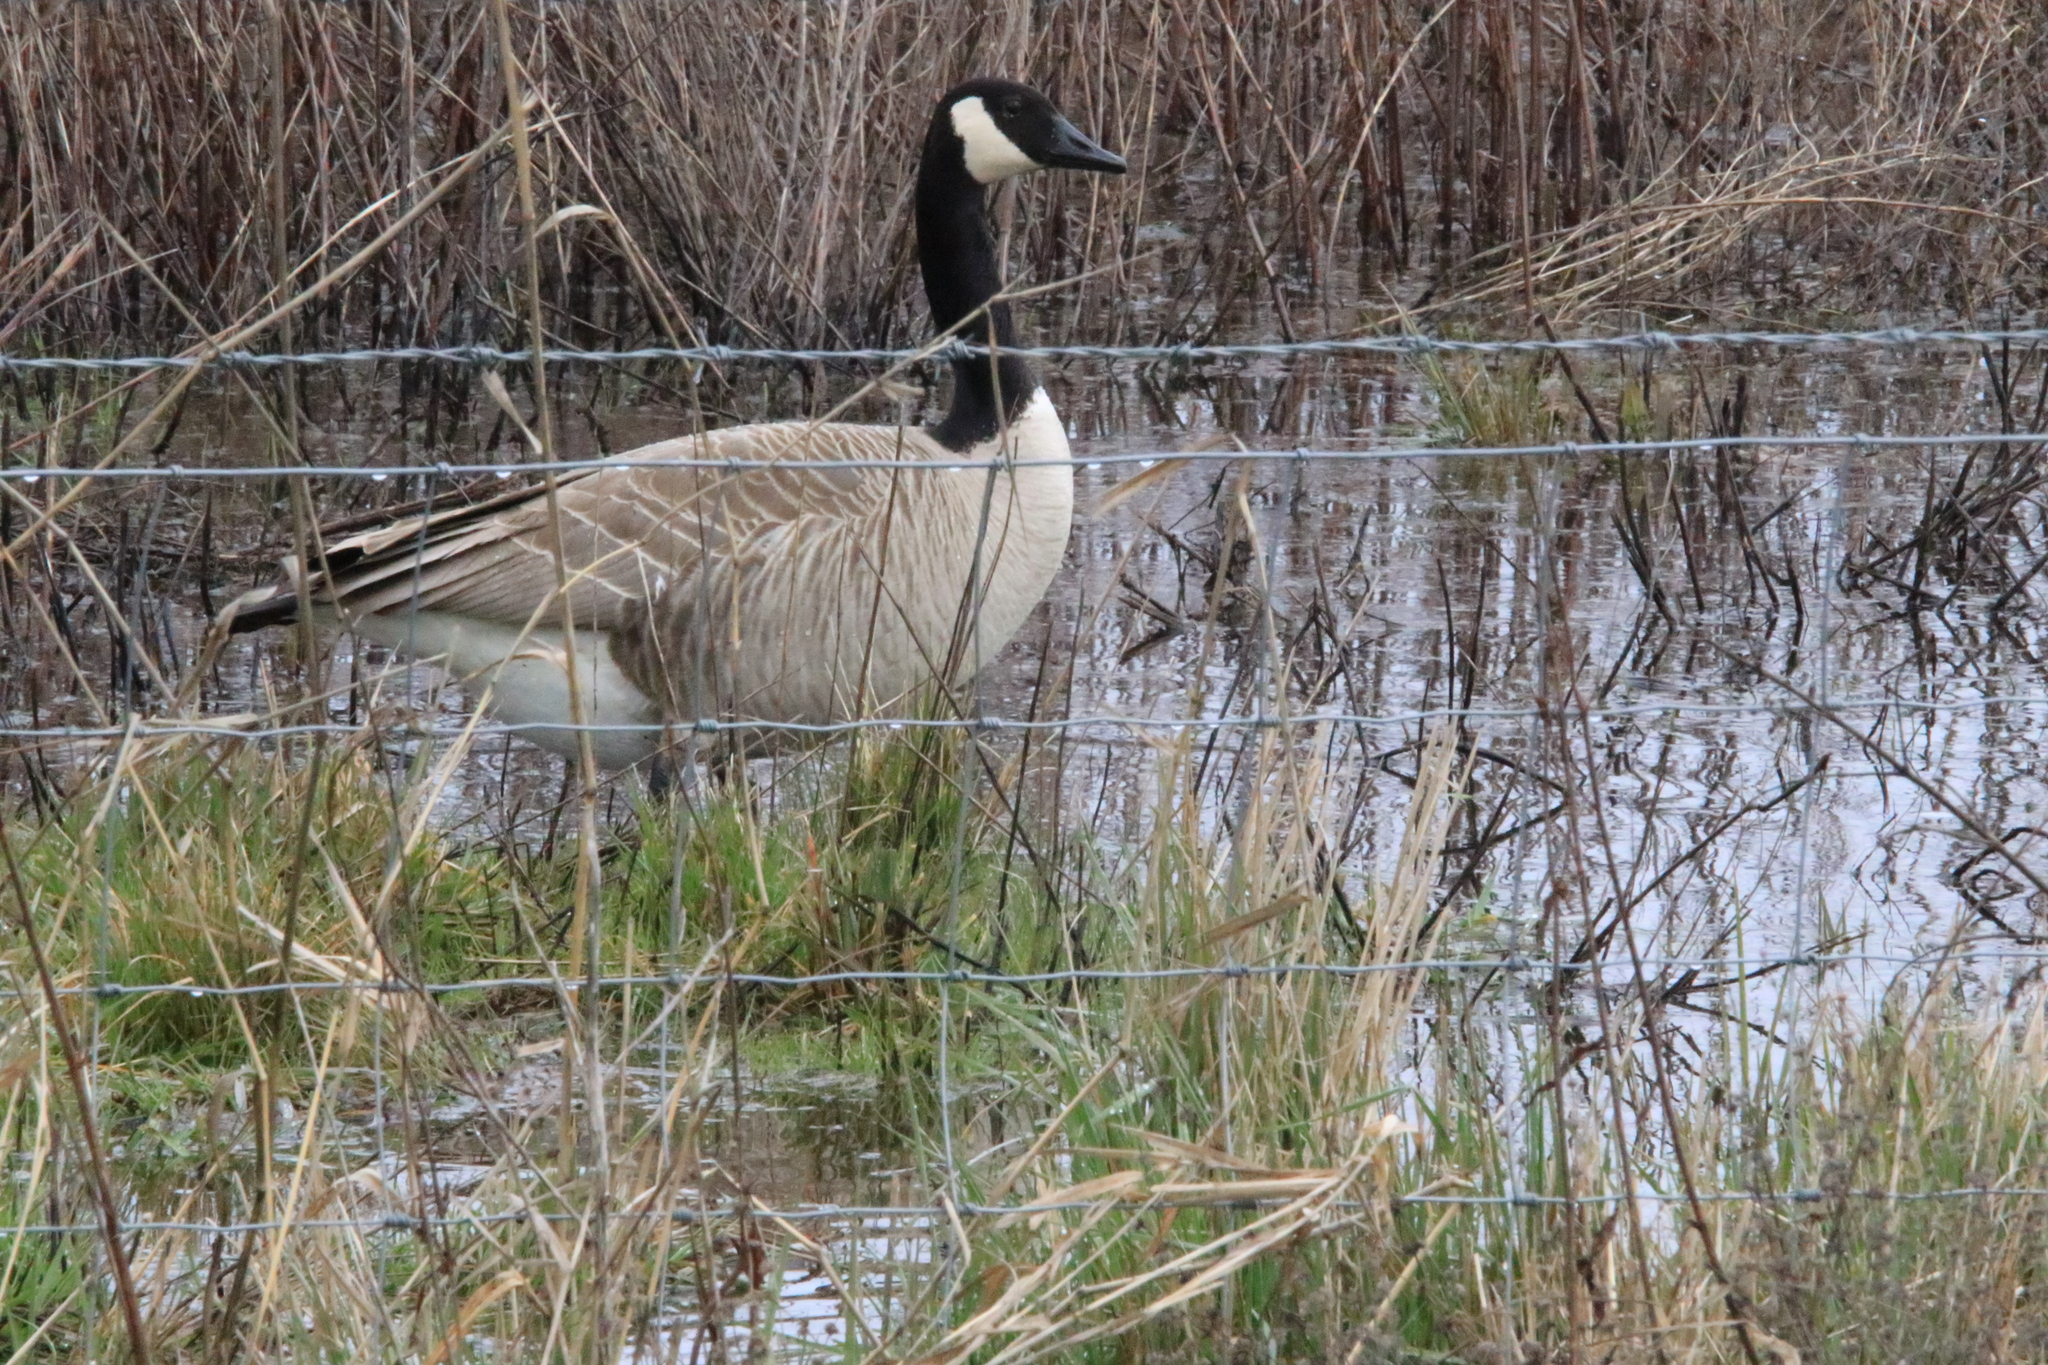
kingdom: Animalia
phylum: Chordata
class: Aves
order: Anseriformes
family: Anatidae
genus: Branta
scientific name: Branta canadensis
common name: Canada goose
